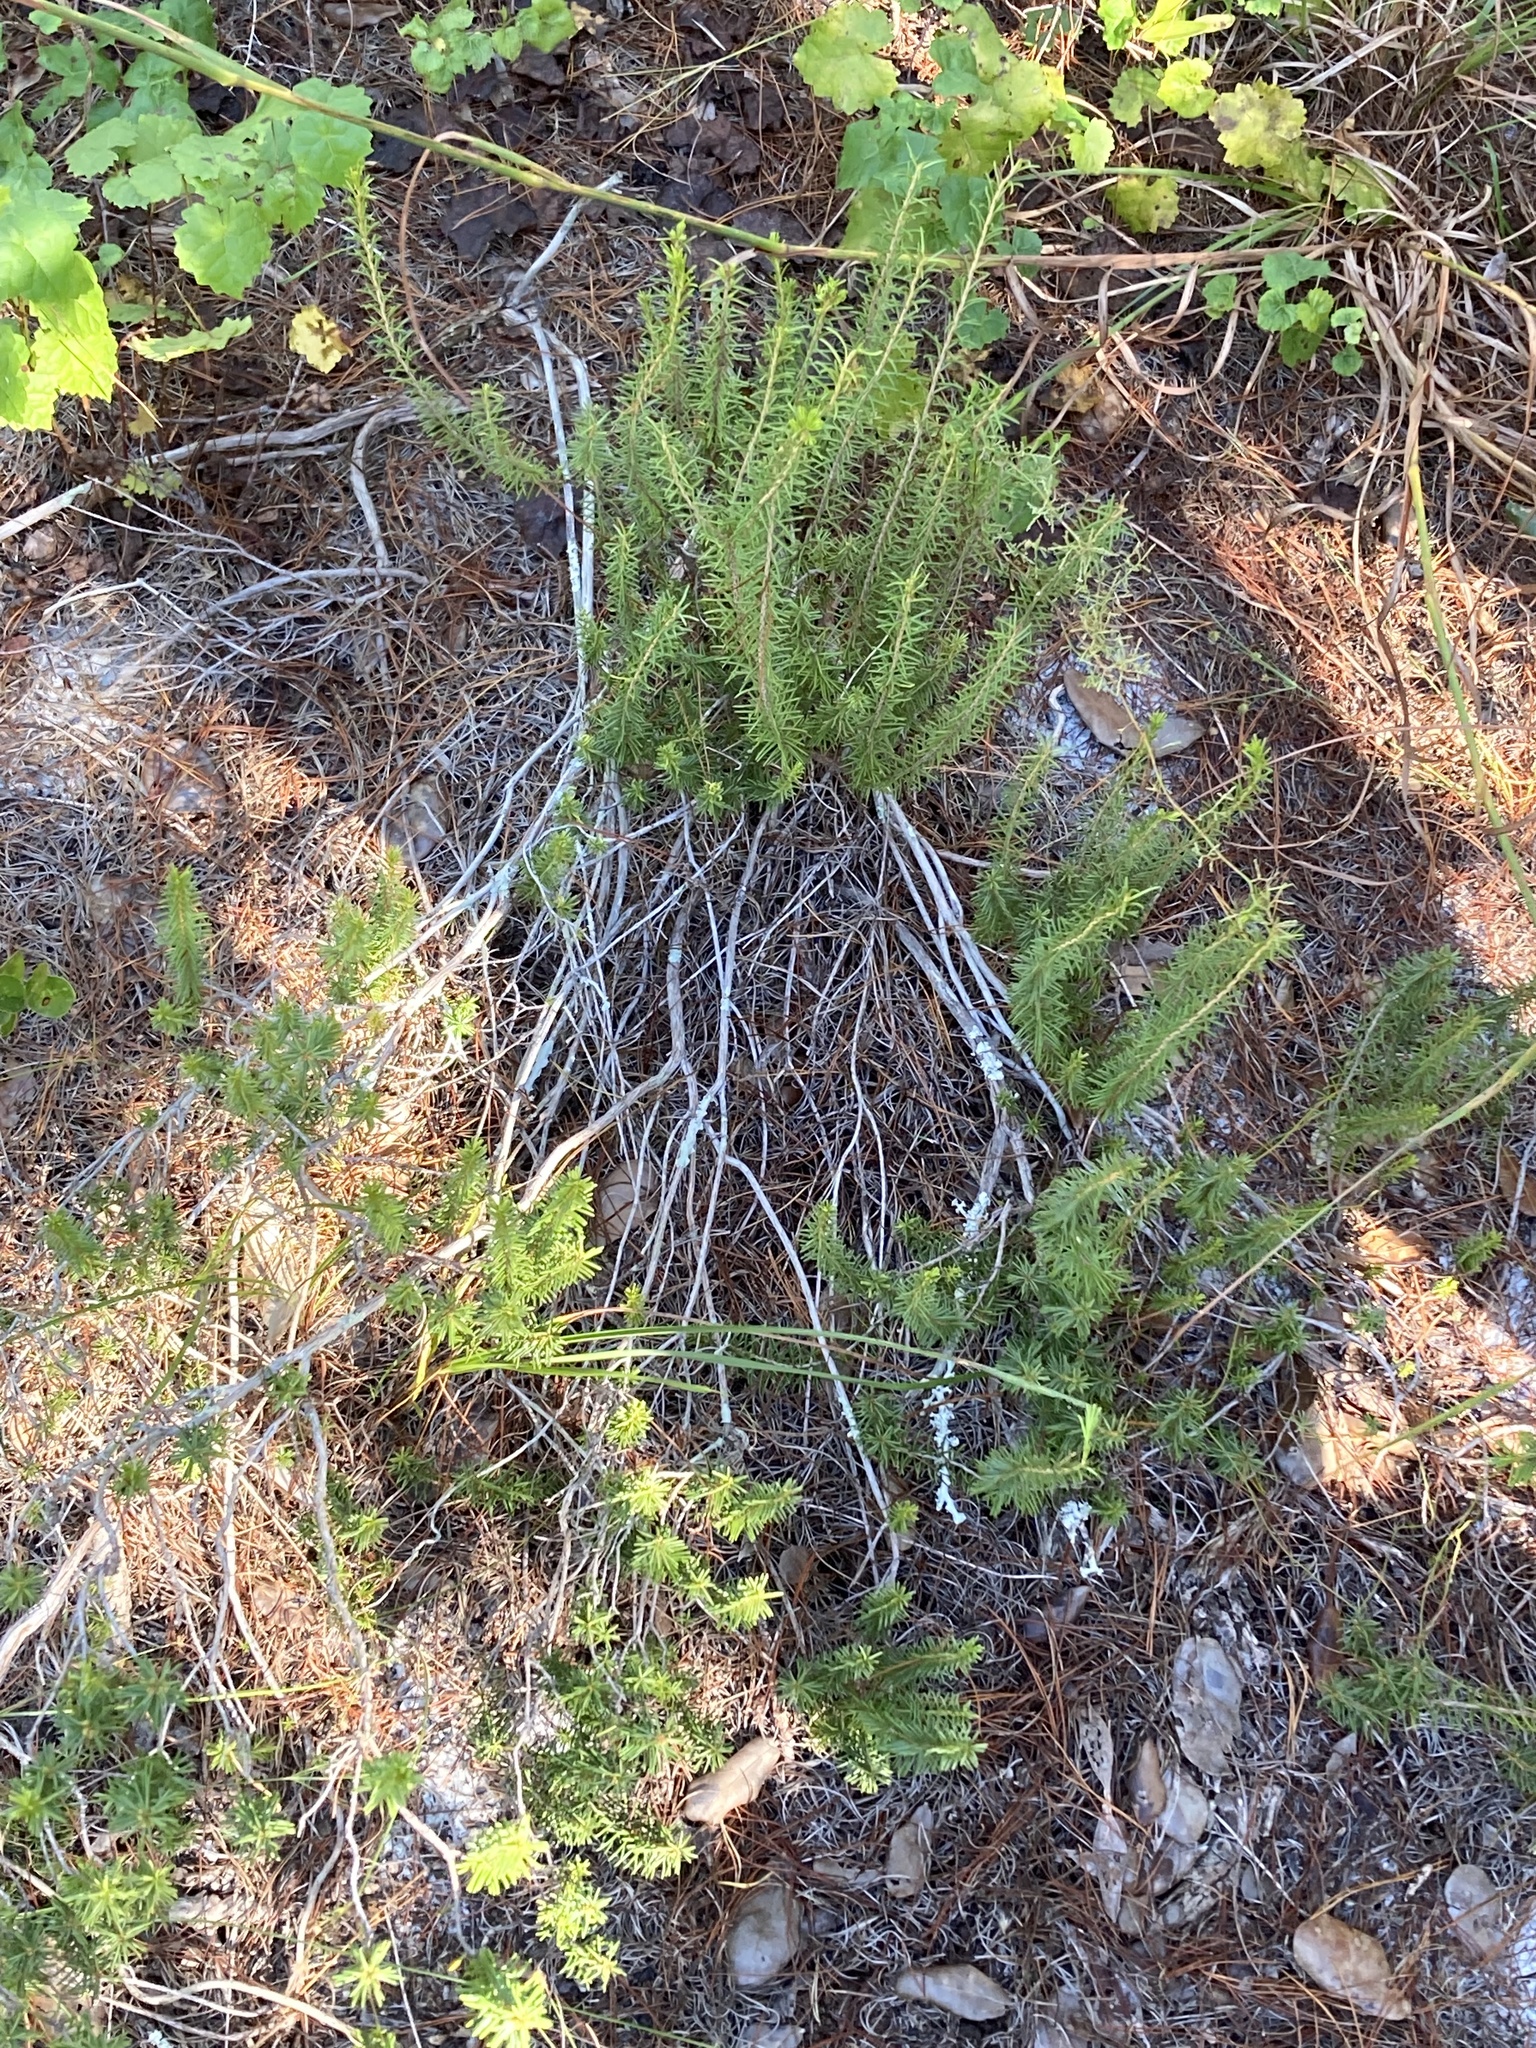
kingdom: Plantae
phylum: Tracheophyta
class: Magnoliopsida
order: Ericales
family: Ericaceae
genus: Ceratiola
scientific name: Ceratiola ericoides
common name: Sandhill-rosemary
